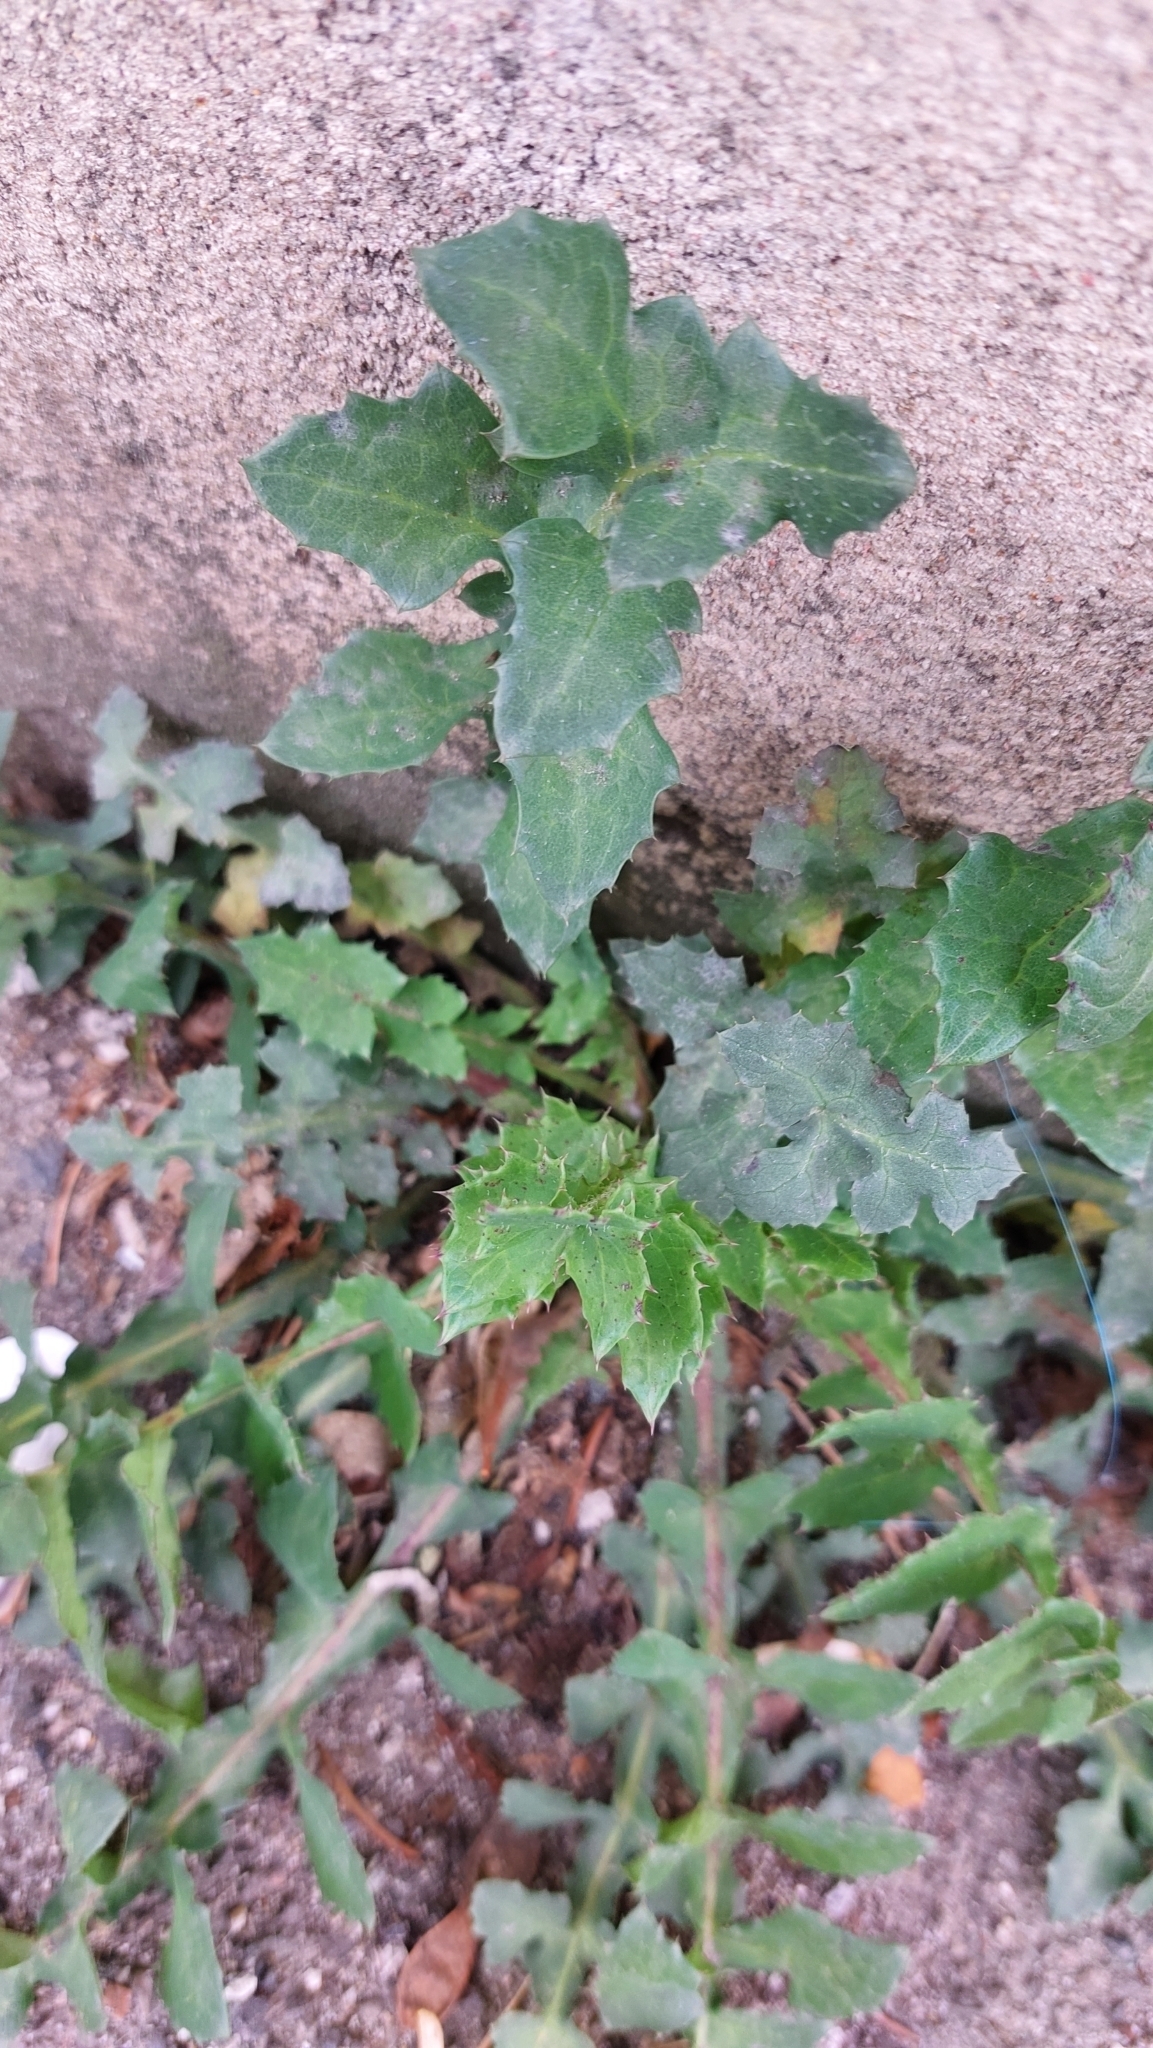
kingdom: Plantae
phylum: Tracheophyta
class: Magnoliopsida
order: Asterales
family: Asteraceae
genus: Sonchus
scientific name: Sonchus oleraceus
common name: Common sowthistle
